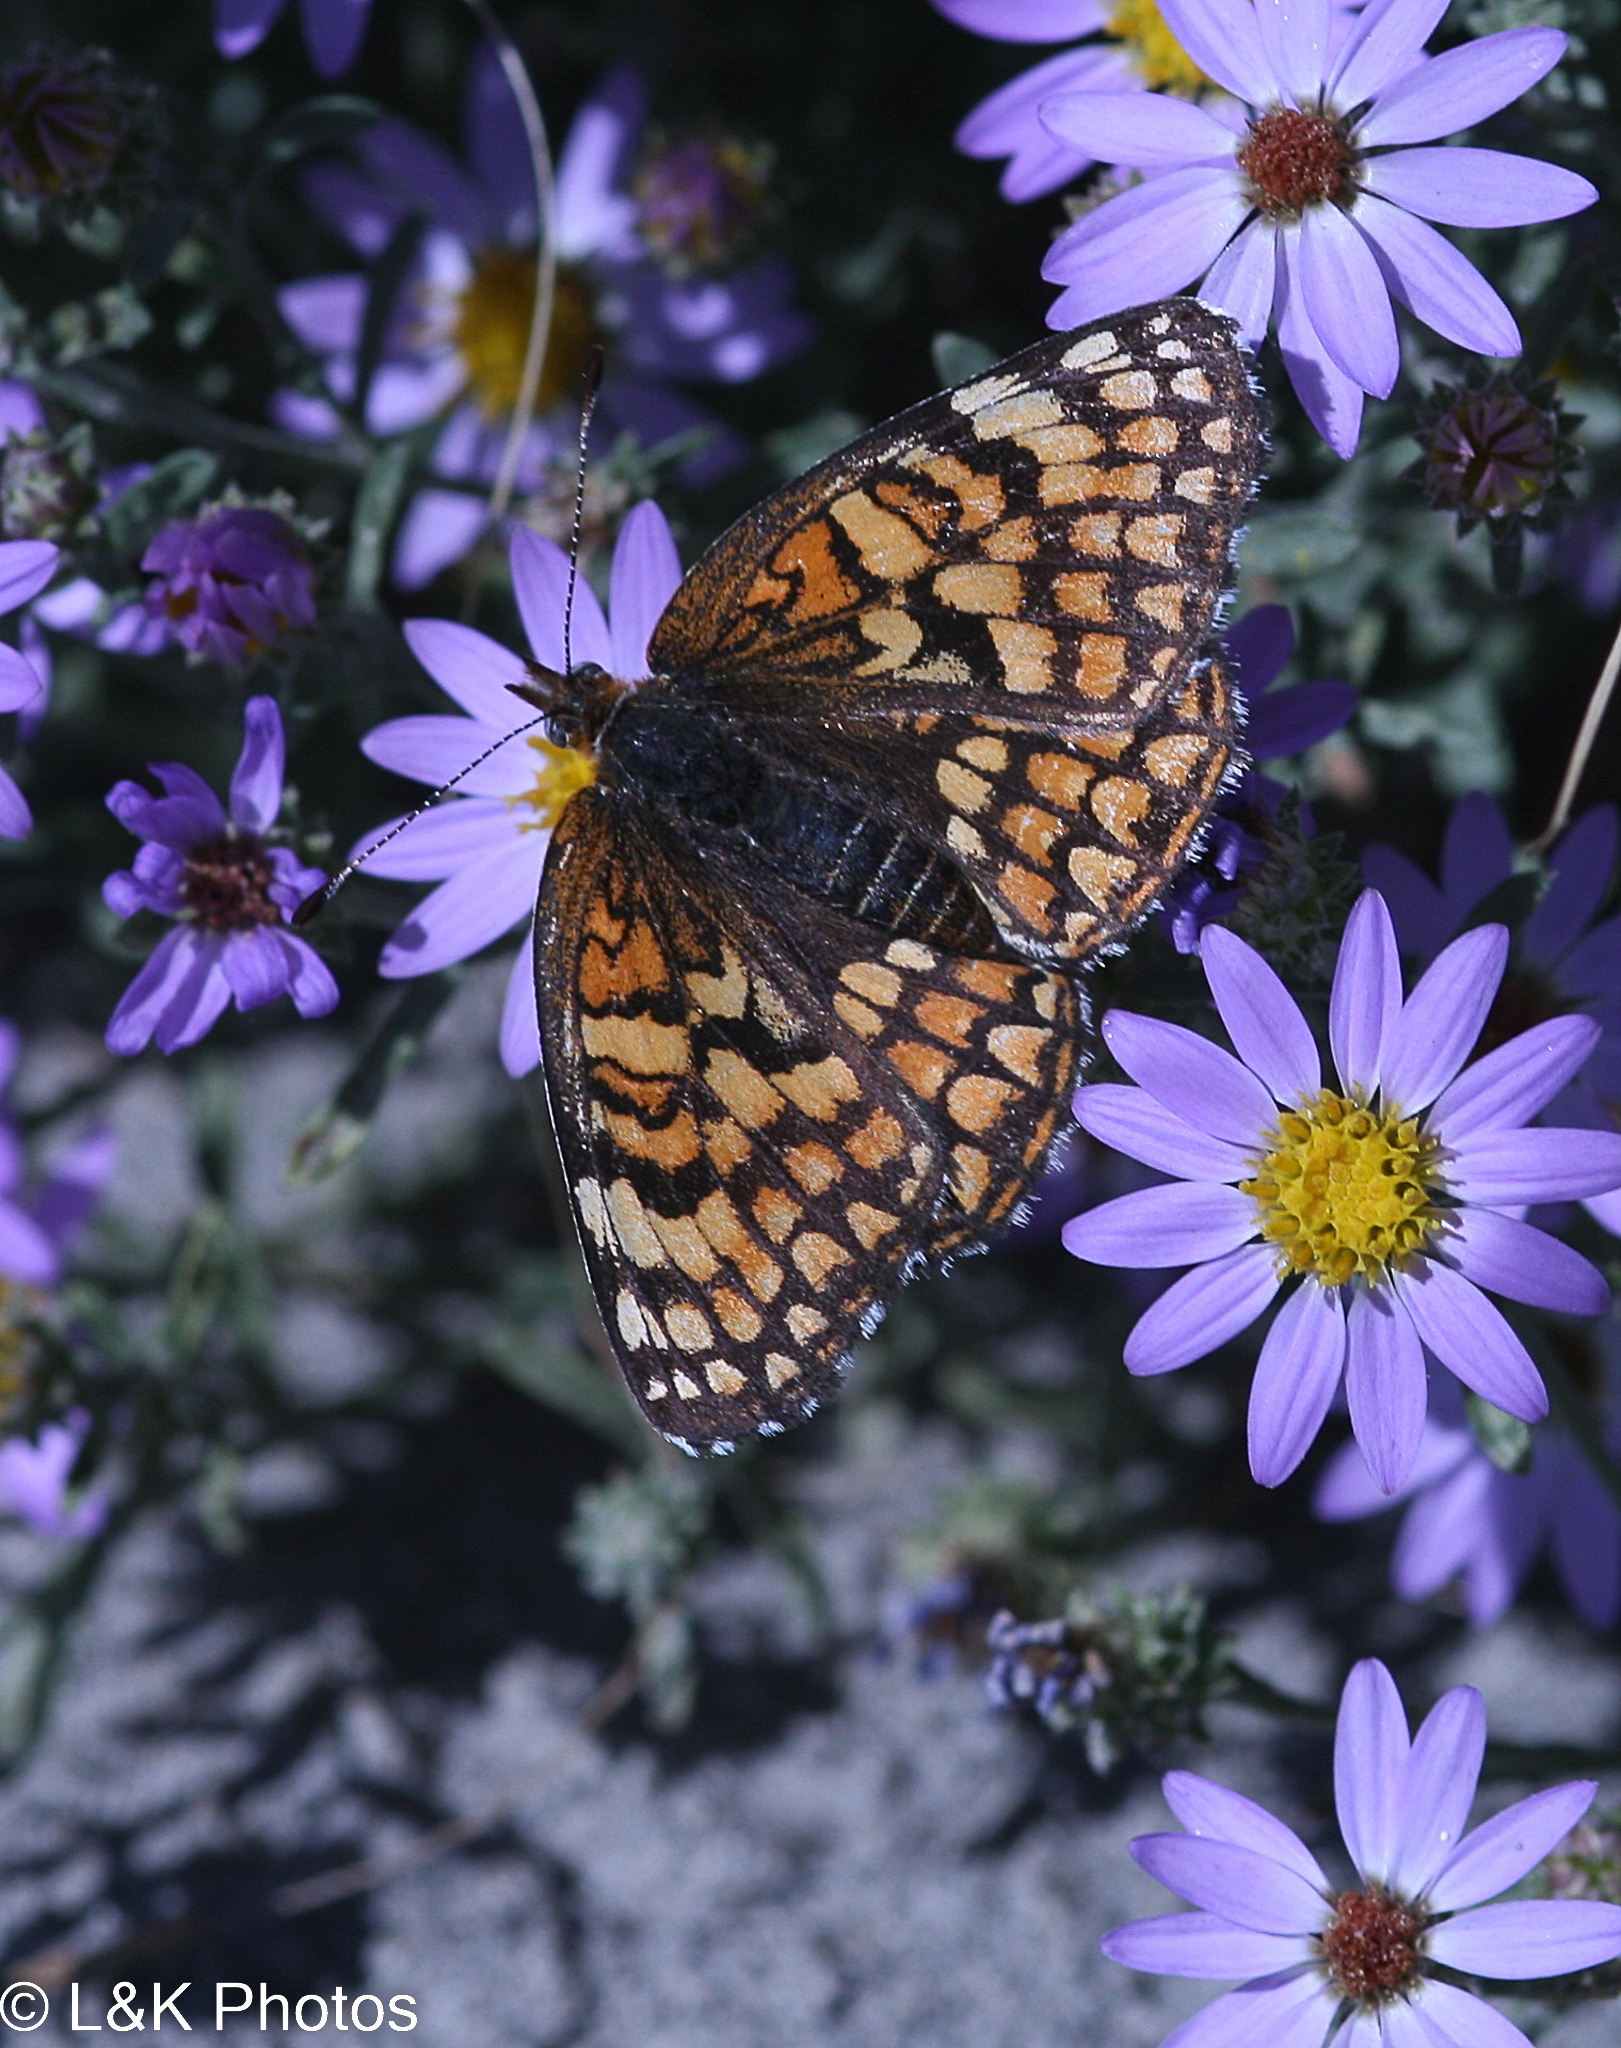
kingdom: Animalia
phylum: Arthropoda
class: Insecta
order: Lepidoptera
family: Nymphalidae
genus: Chlosyne
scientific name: Chlosyne acastus
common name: Sagebrush checkerspot
